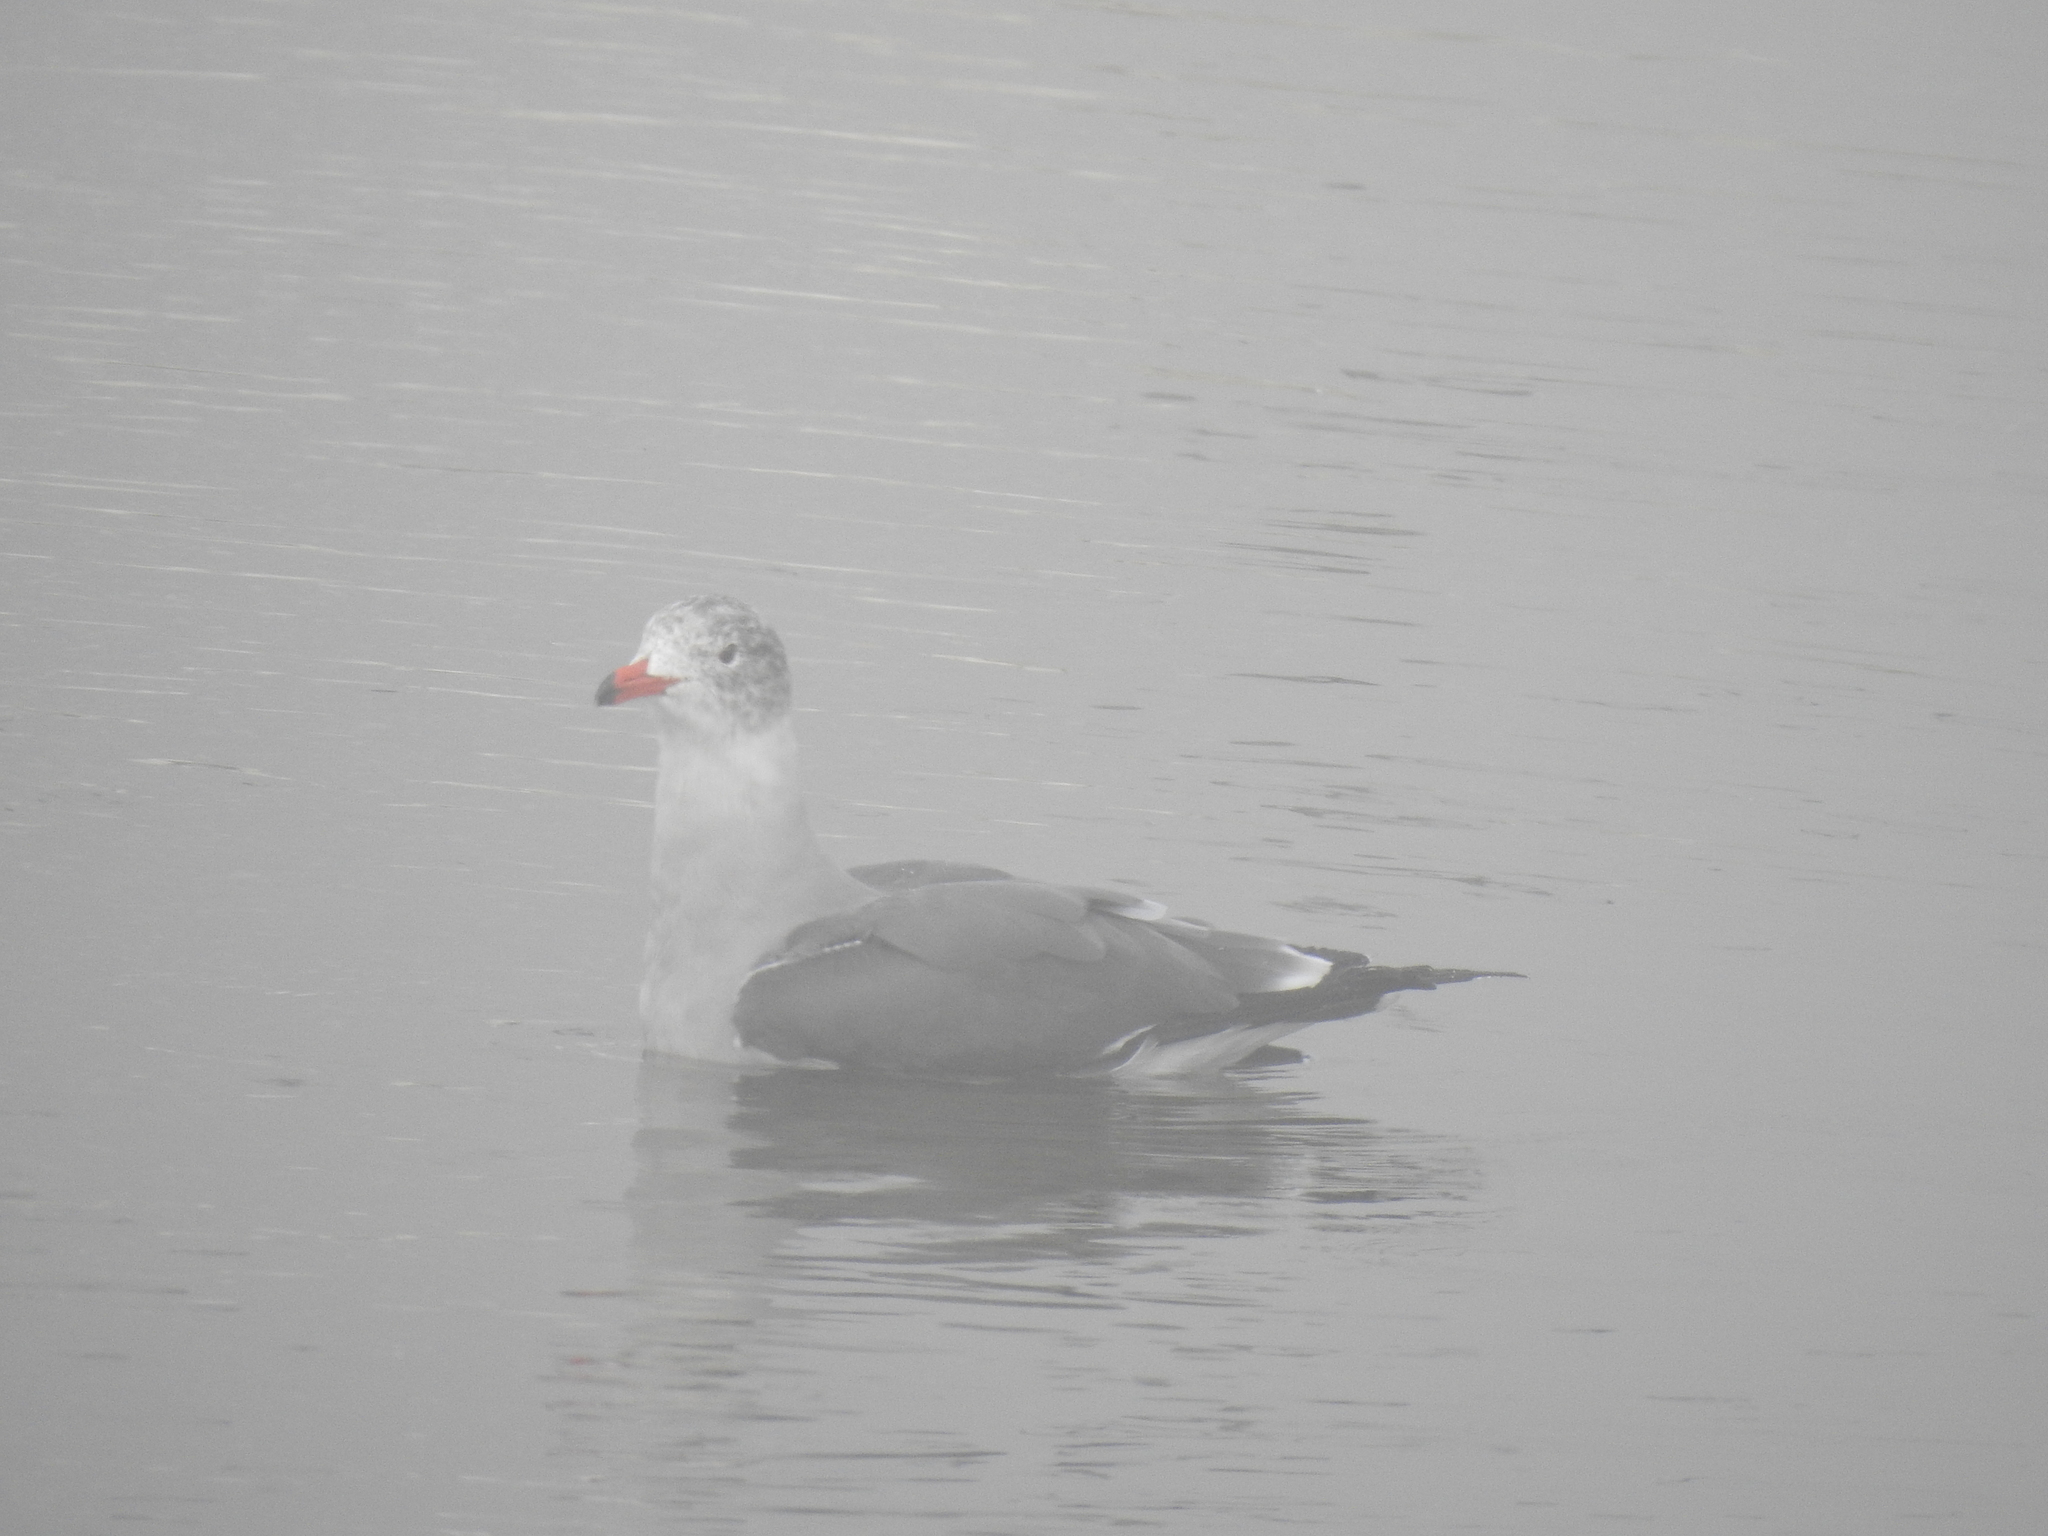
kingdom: Animalia
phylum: Chordata
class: Aves
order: Charadriiformes
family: Laridae
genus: Larus
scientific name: Larus heermanni
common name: Heermann's gull
